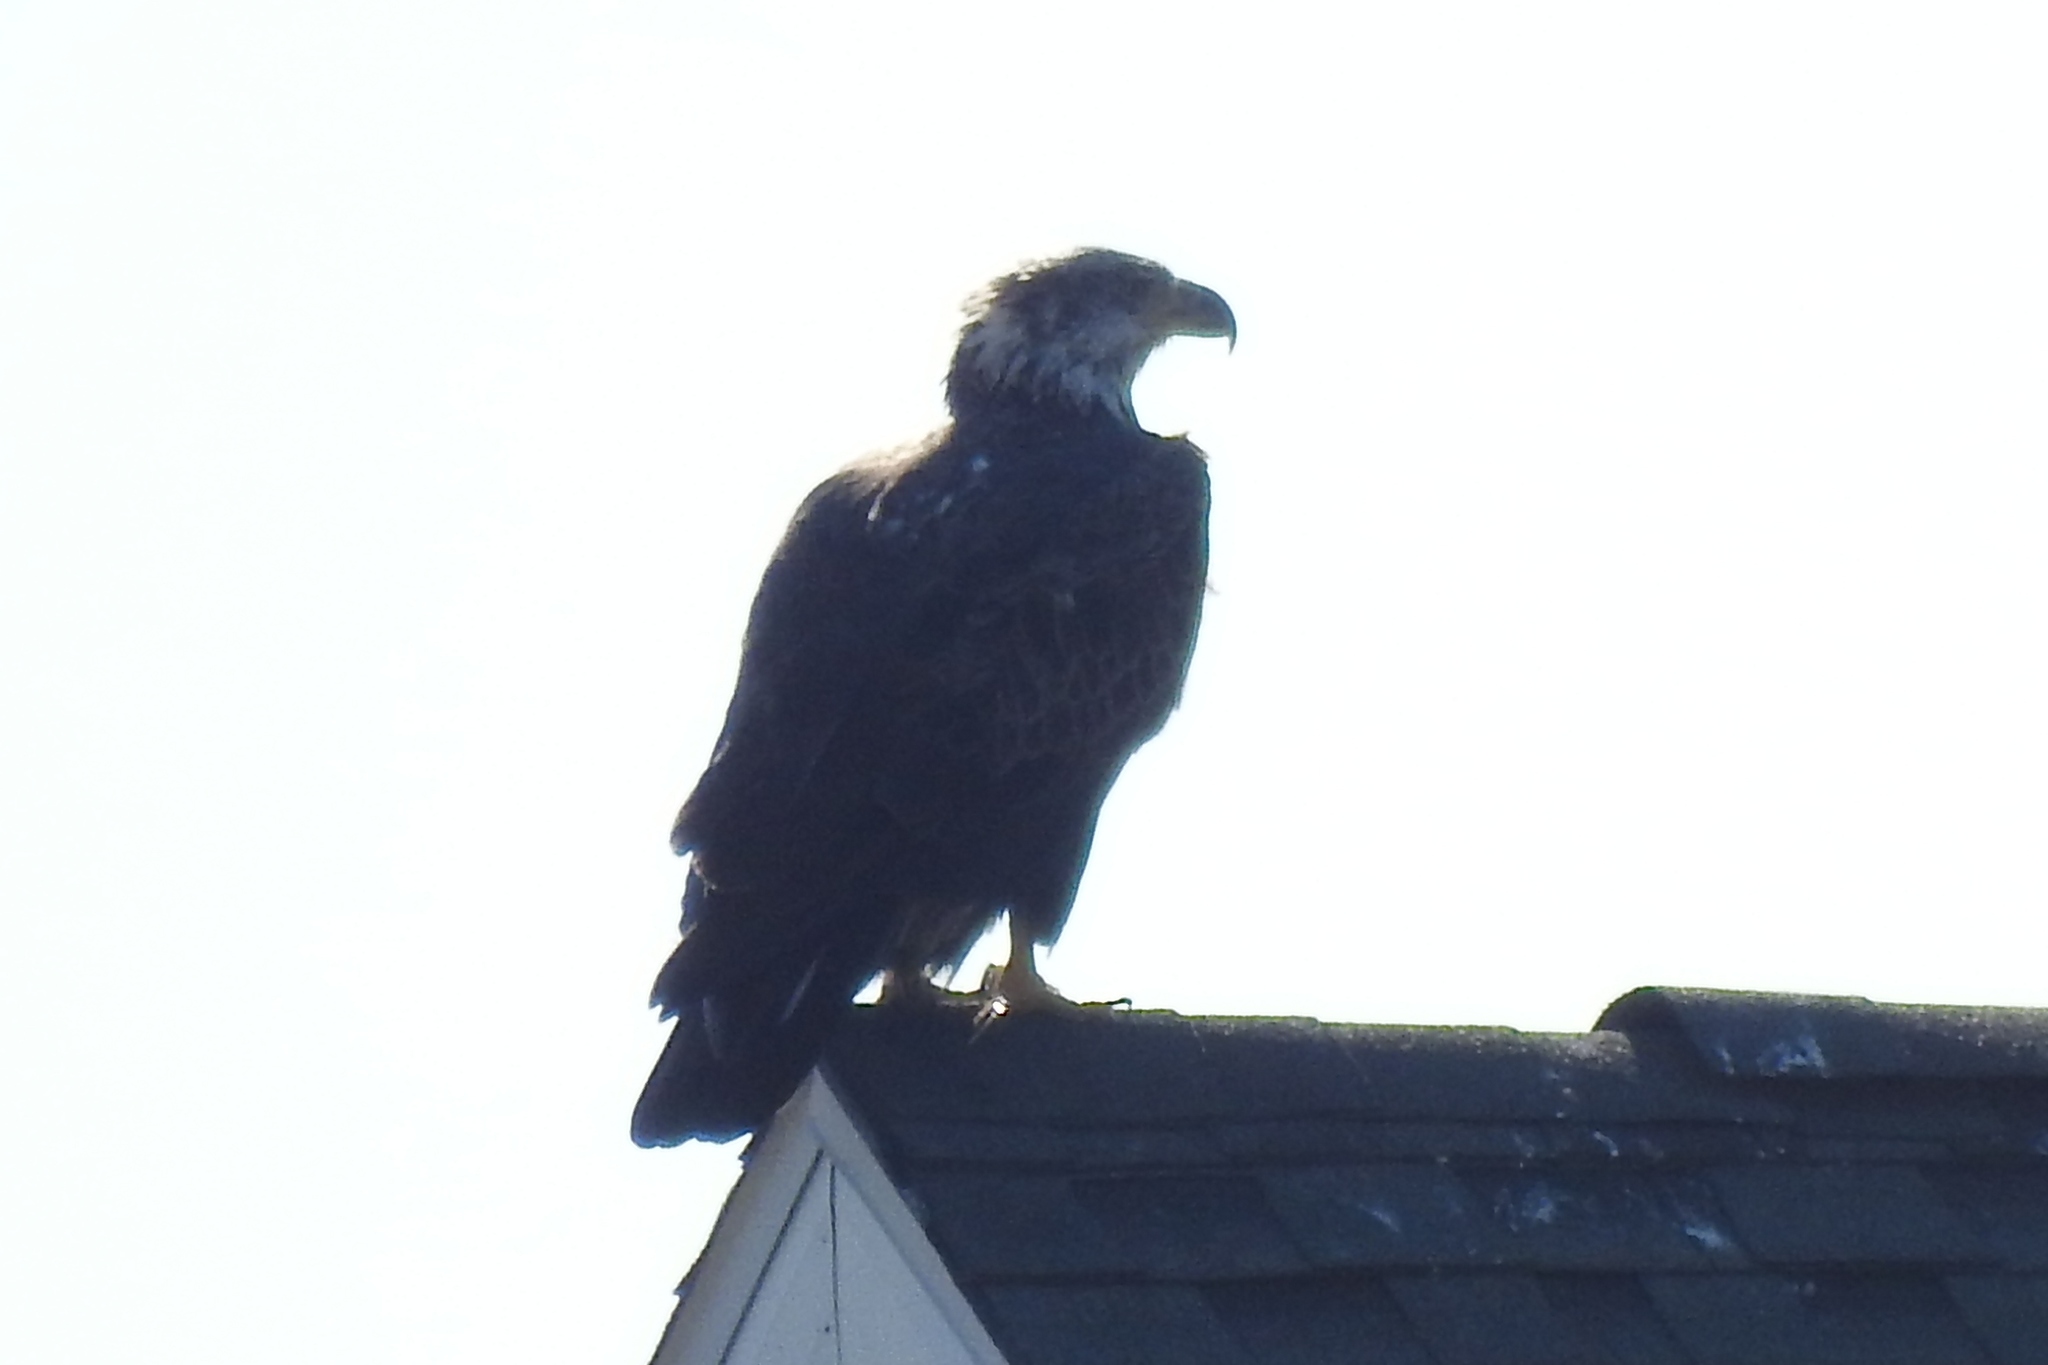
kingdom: Animalia
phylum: Chordata
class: Aves
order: Accipitriformes
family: Accipitridae
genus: Haliaeetus
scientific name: Haliaeetus leucocephalus
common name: Bald eagle
